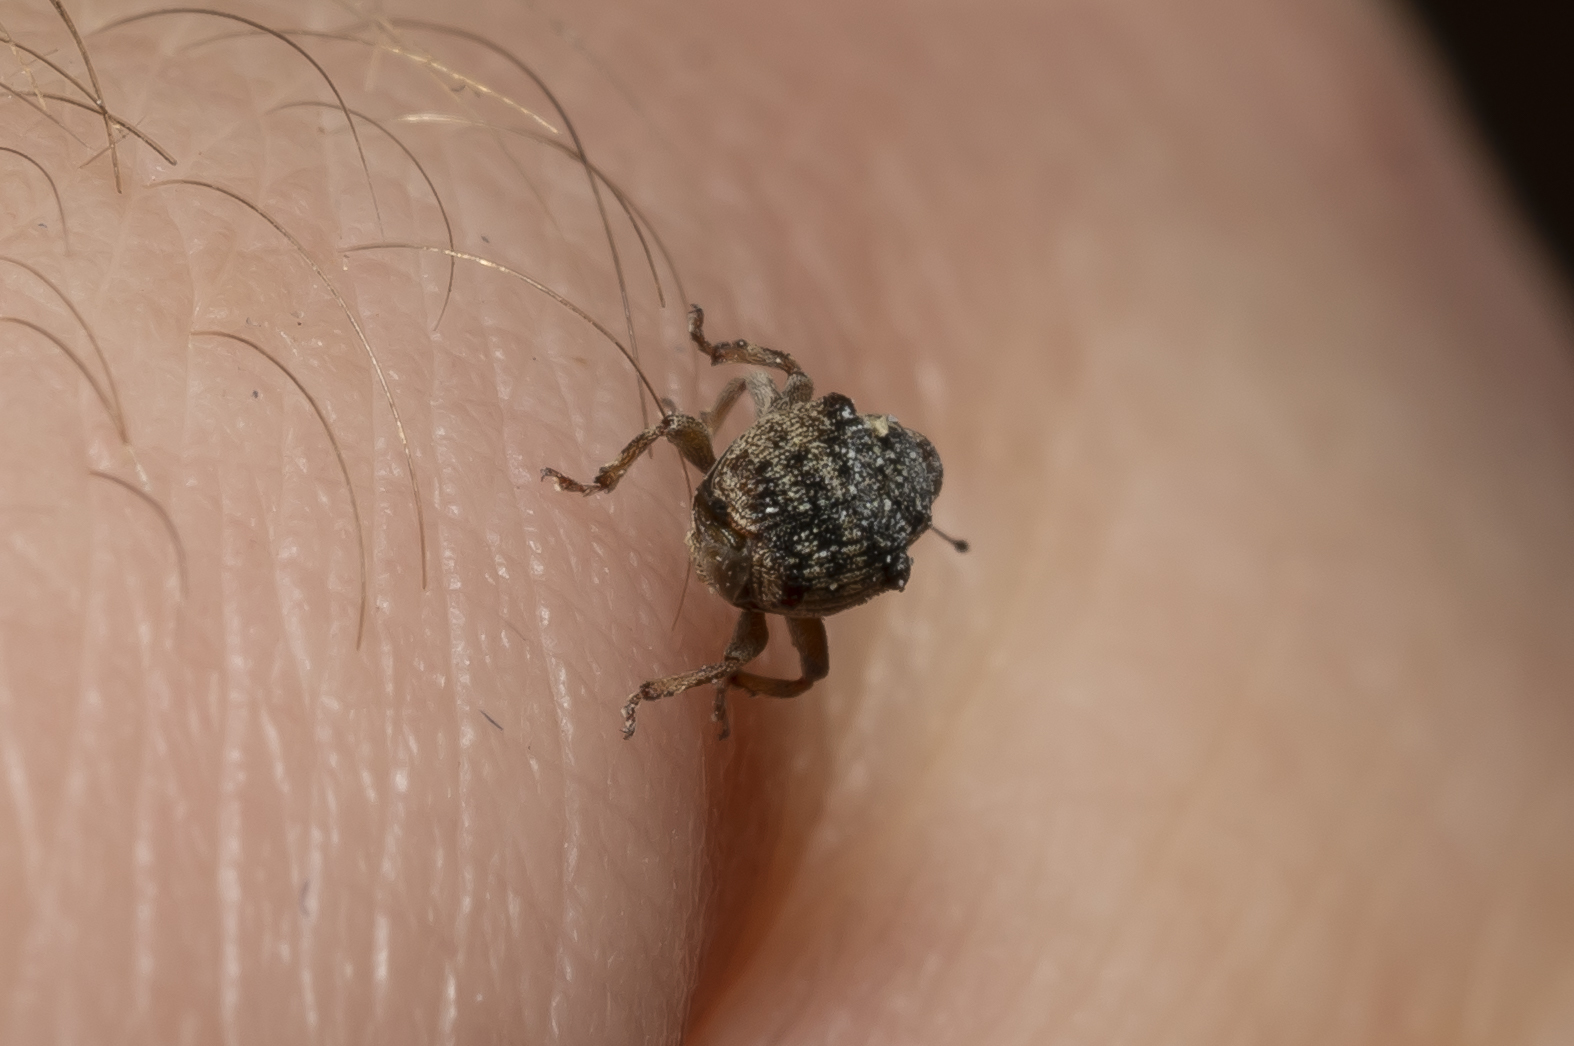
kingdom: Animalia
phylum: Arthropoda
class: Insecta
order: Coleoptera
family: Curculionidae
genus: Pseudocoeliodes
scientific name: Pseudocoeliodes rubricus
